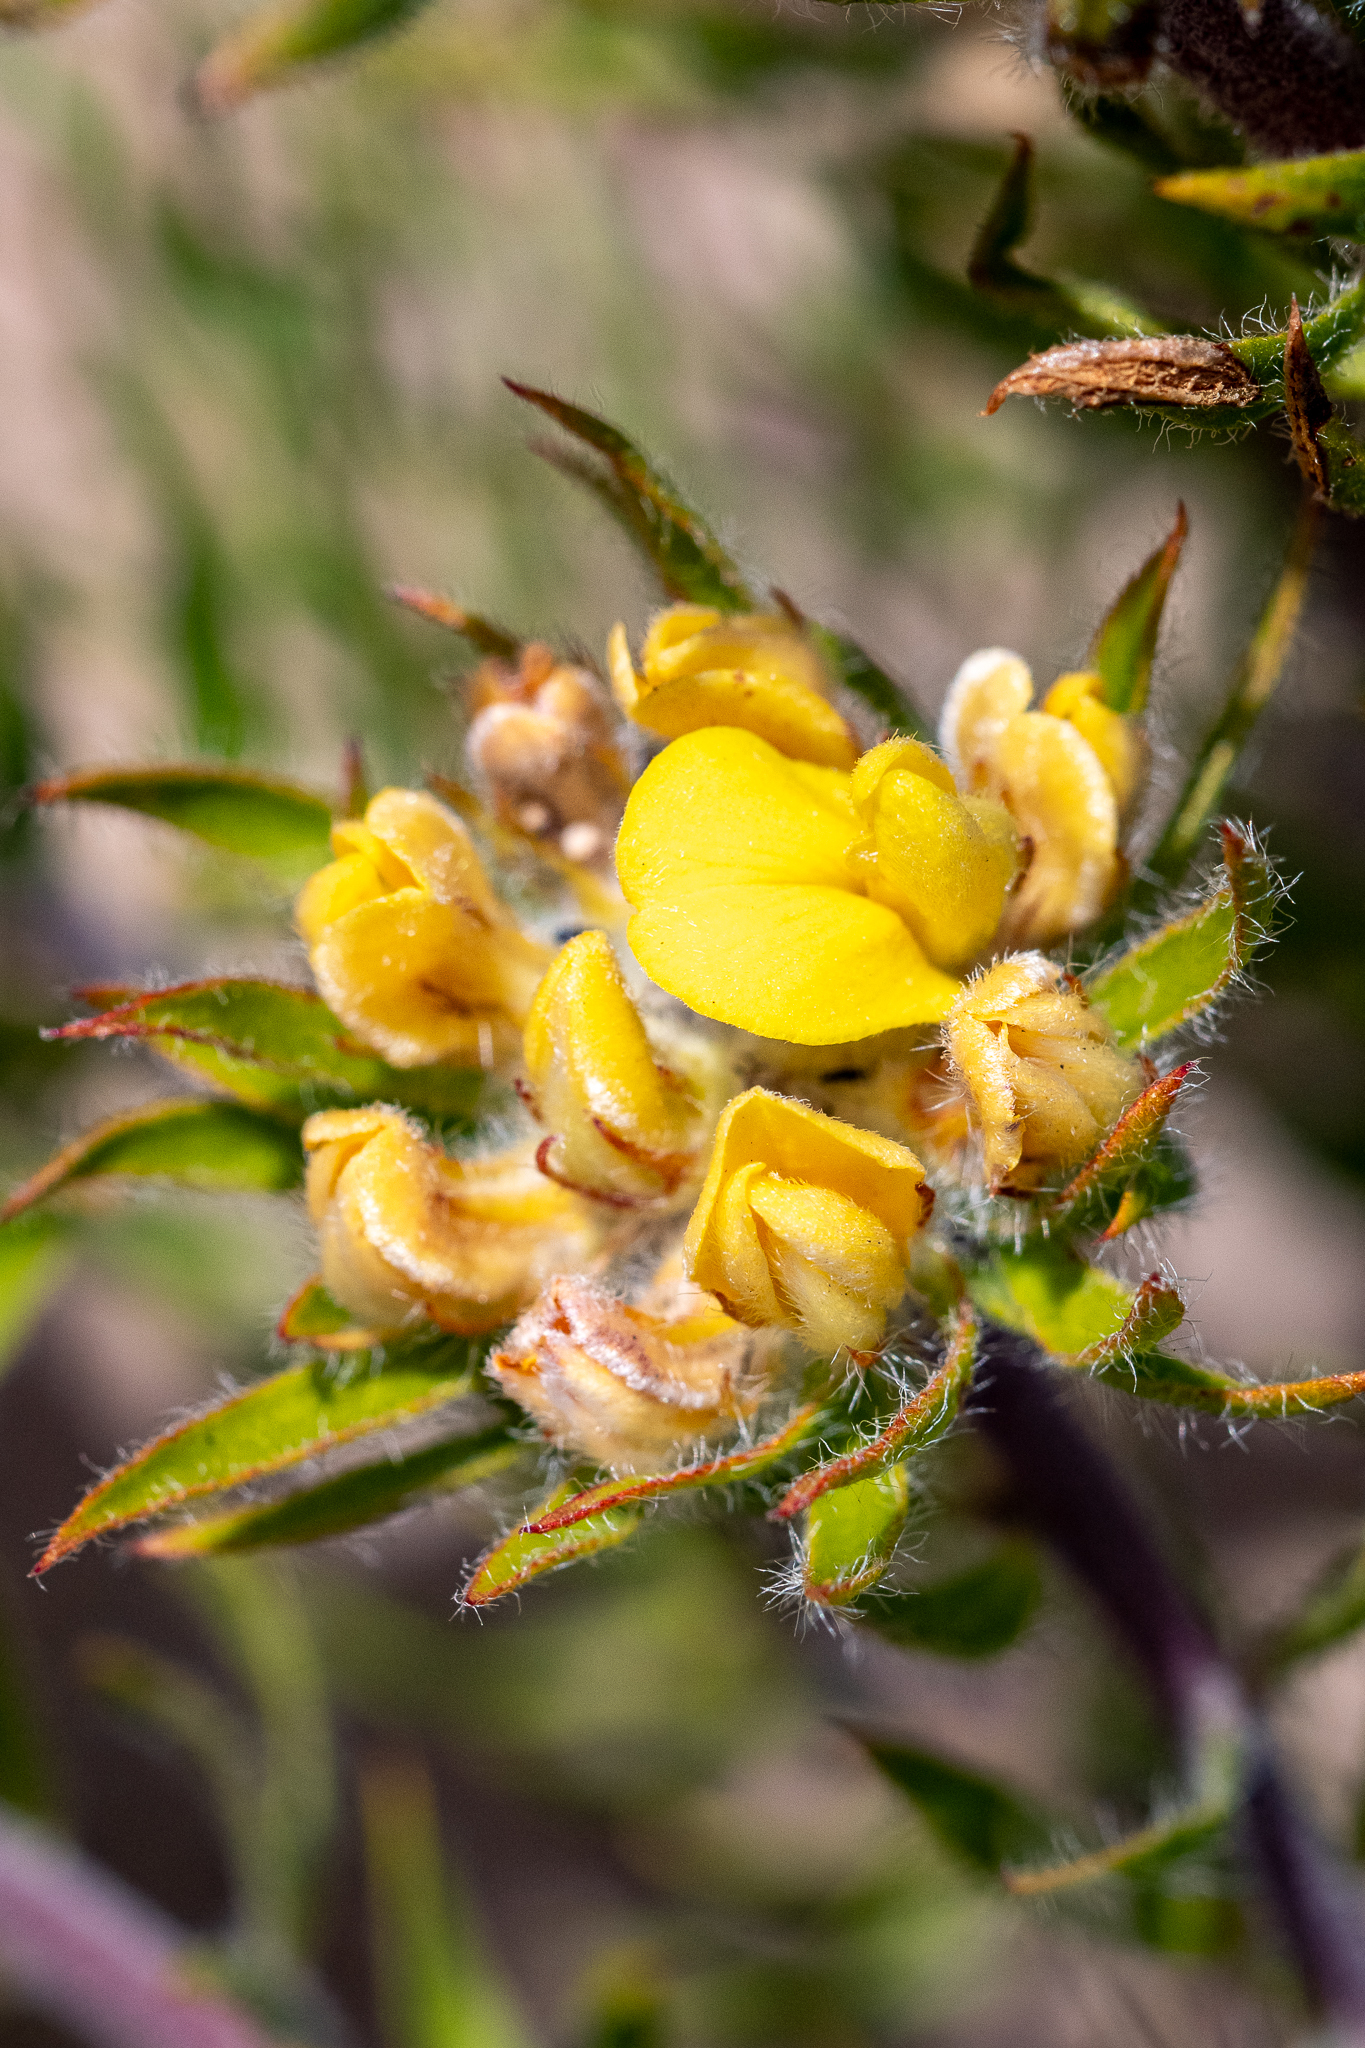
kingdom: Plantae
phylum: Tracheophyta
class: Magnoliopsida
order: Fabales
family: Fabaceae
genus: Aspalathus
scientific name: Aspalathus aspalathoides
